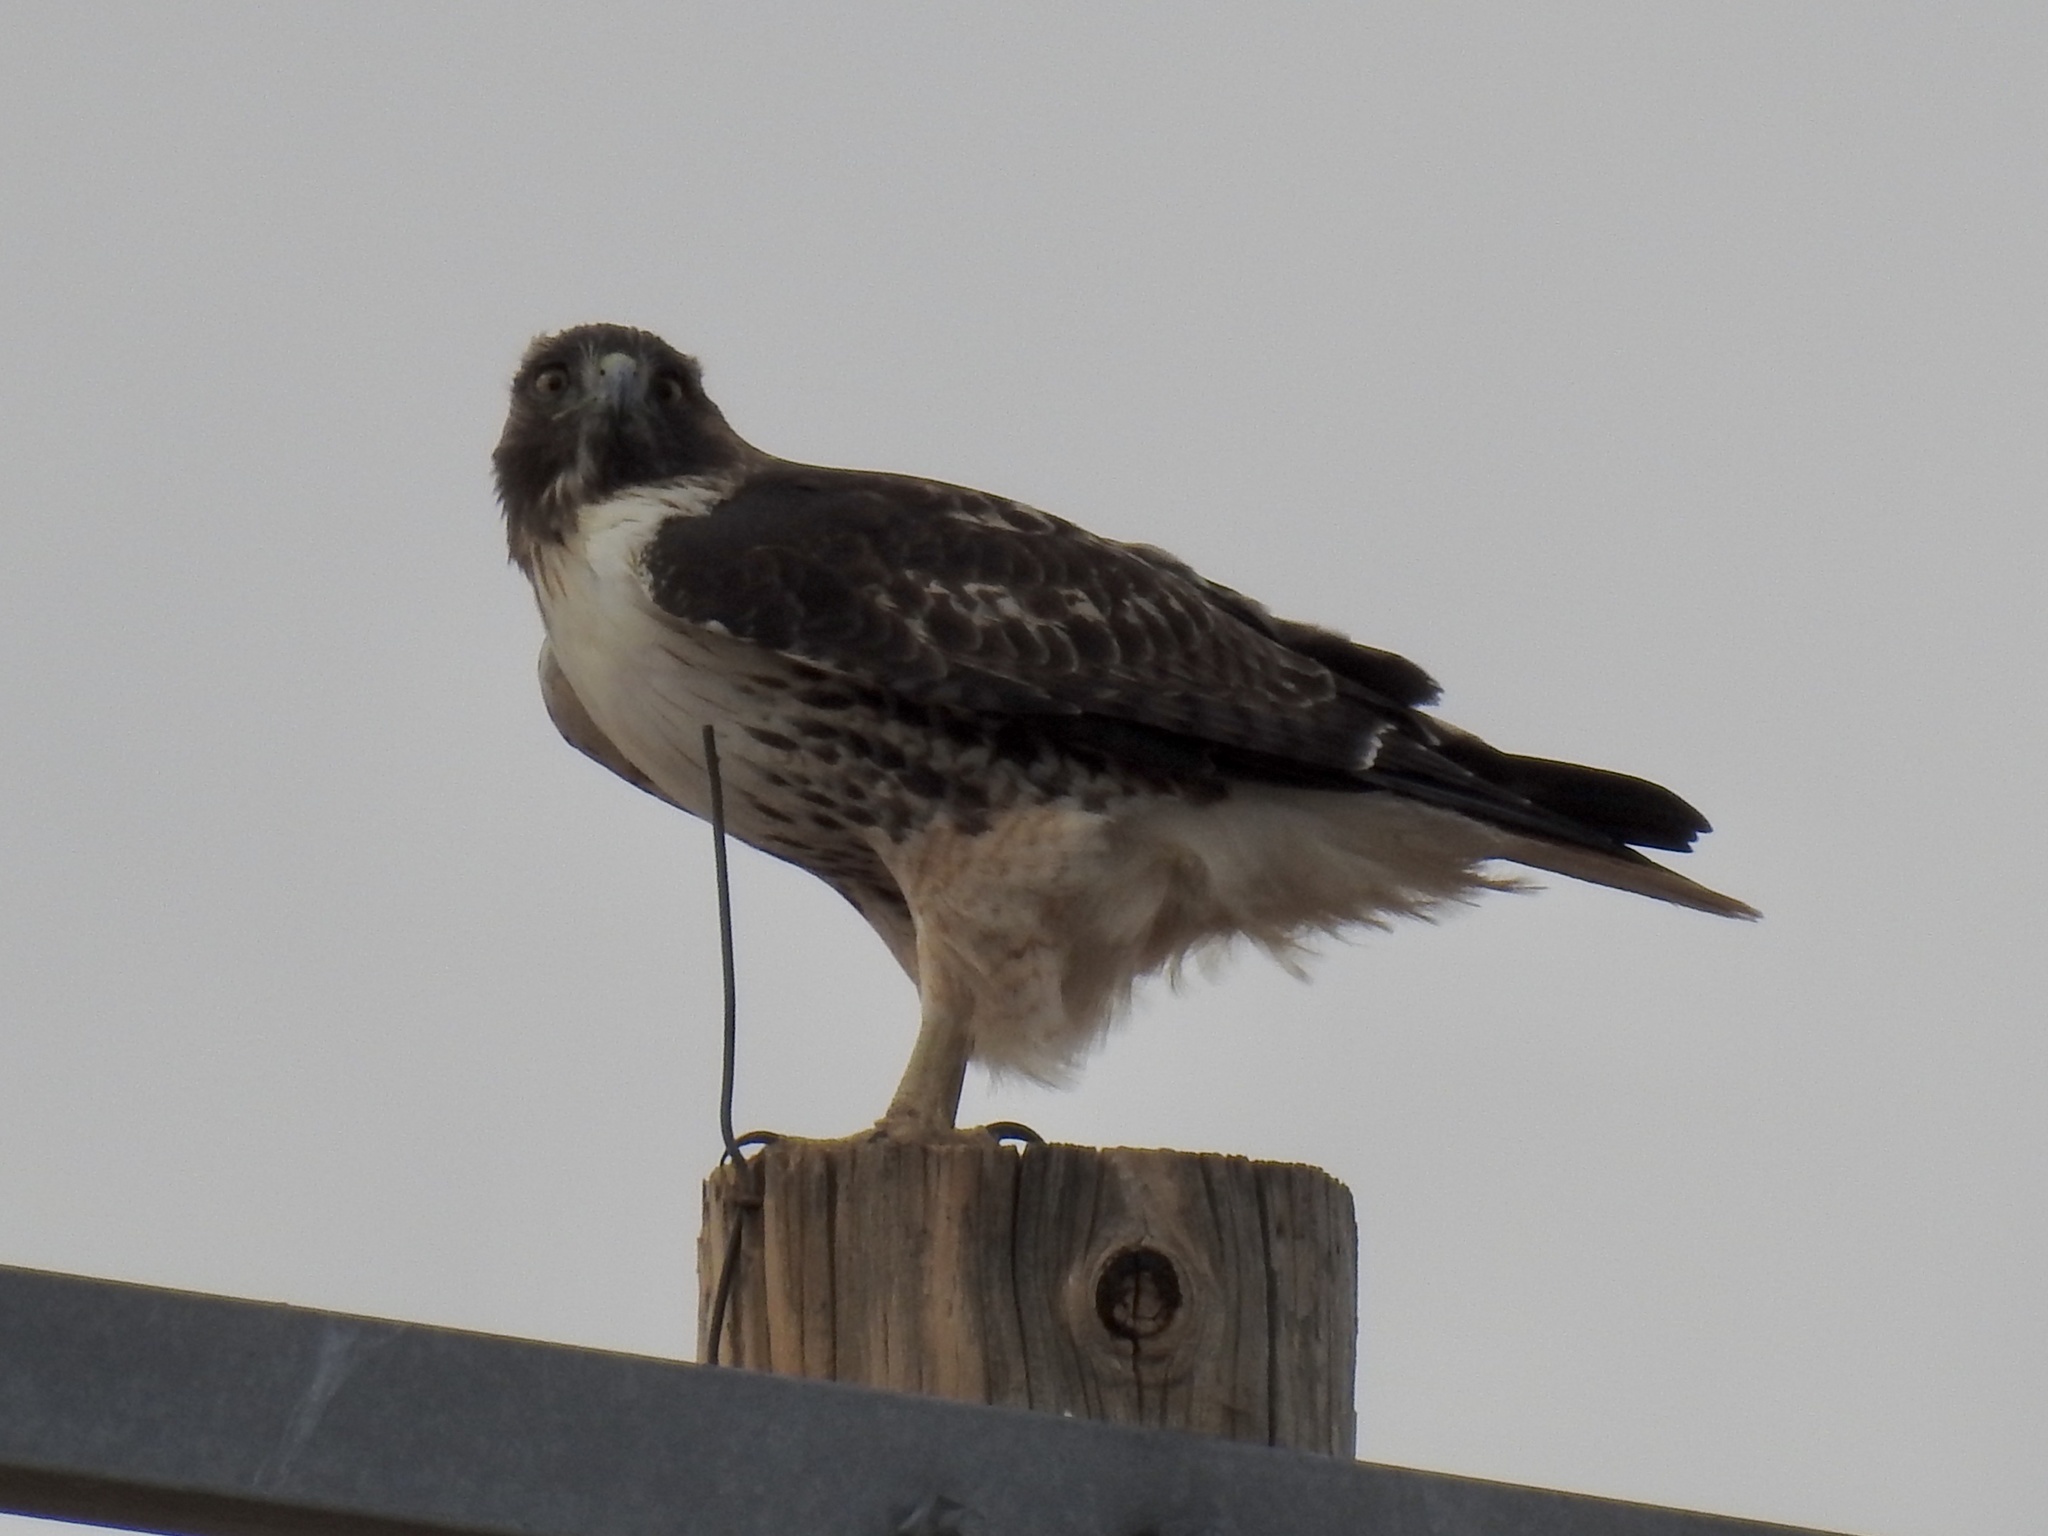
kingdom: Animalia
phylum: Chordata
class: Aves
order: Accipitriformes
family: Accipitridae
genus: Buteo
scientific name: Buteo jamaicensis
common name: Red-tailed hawk
